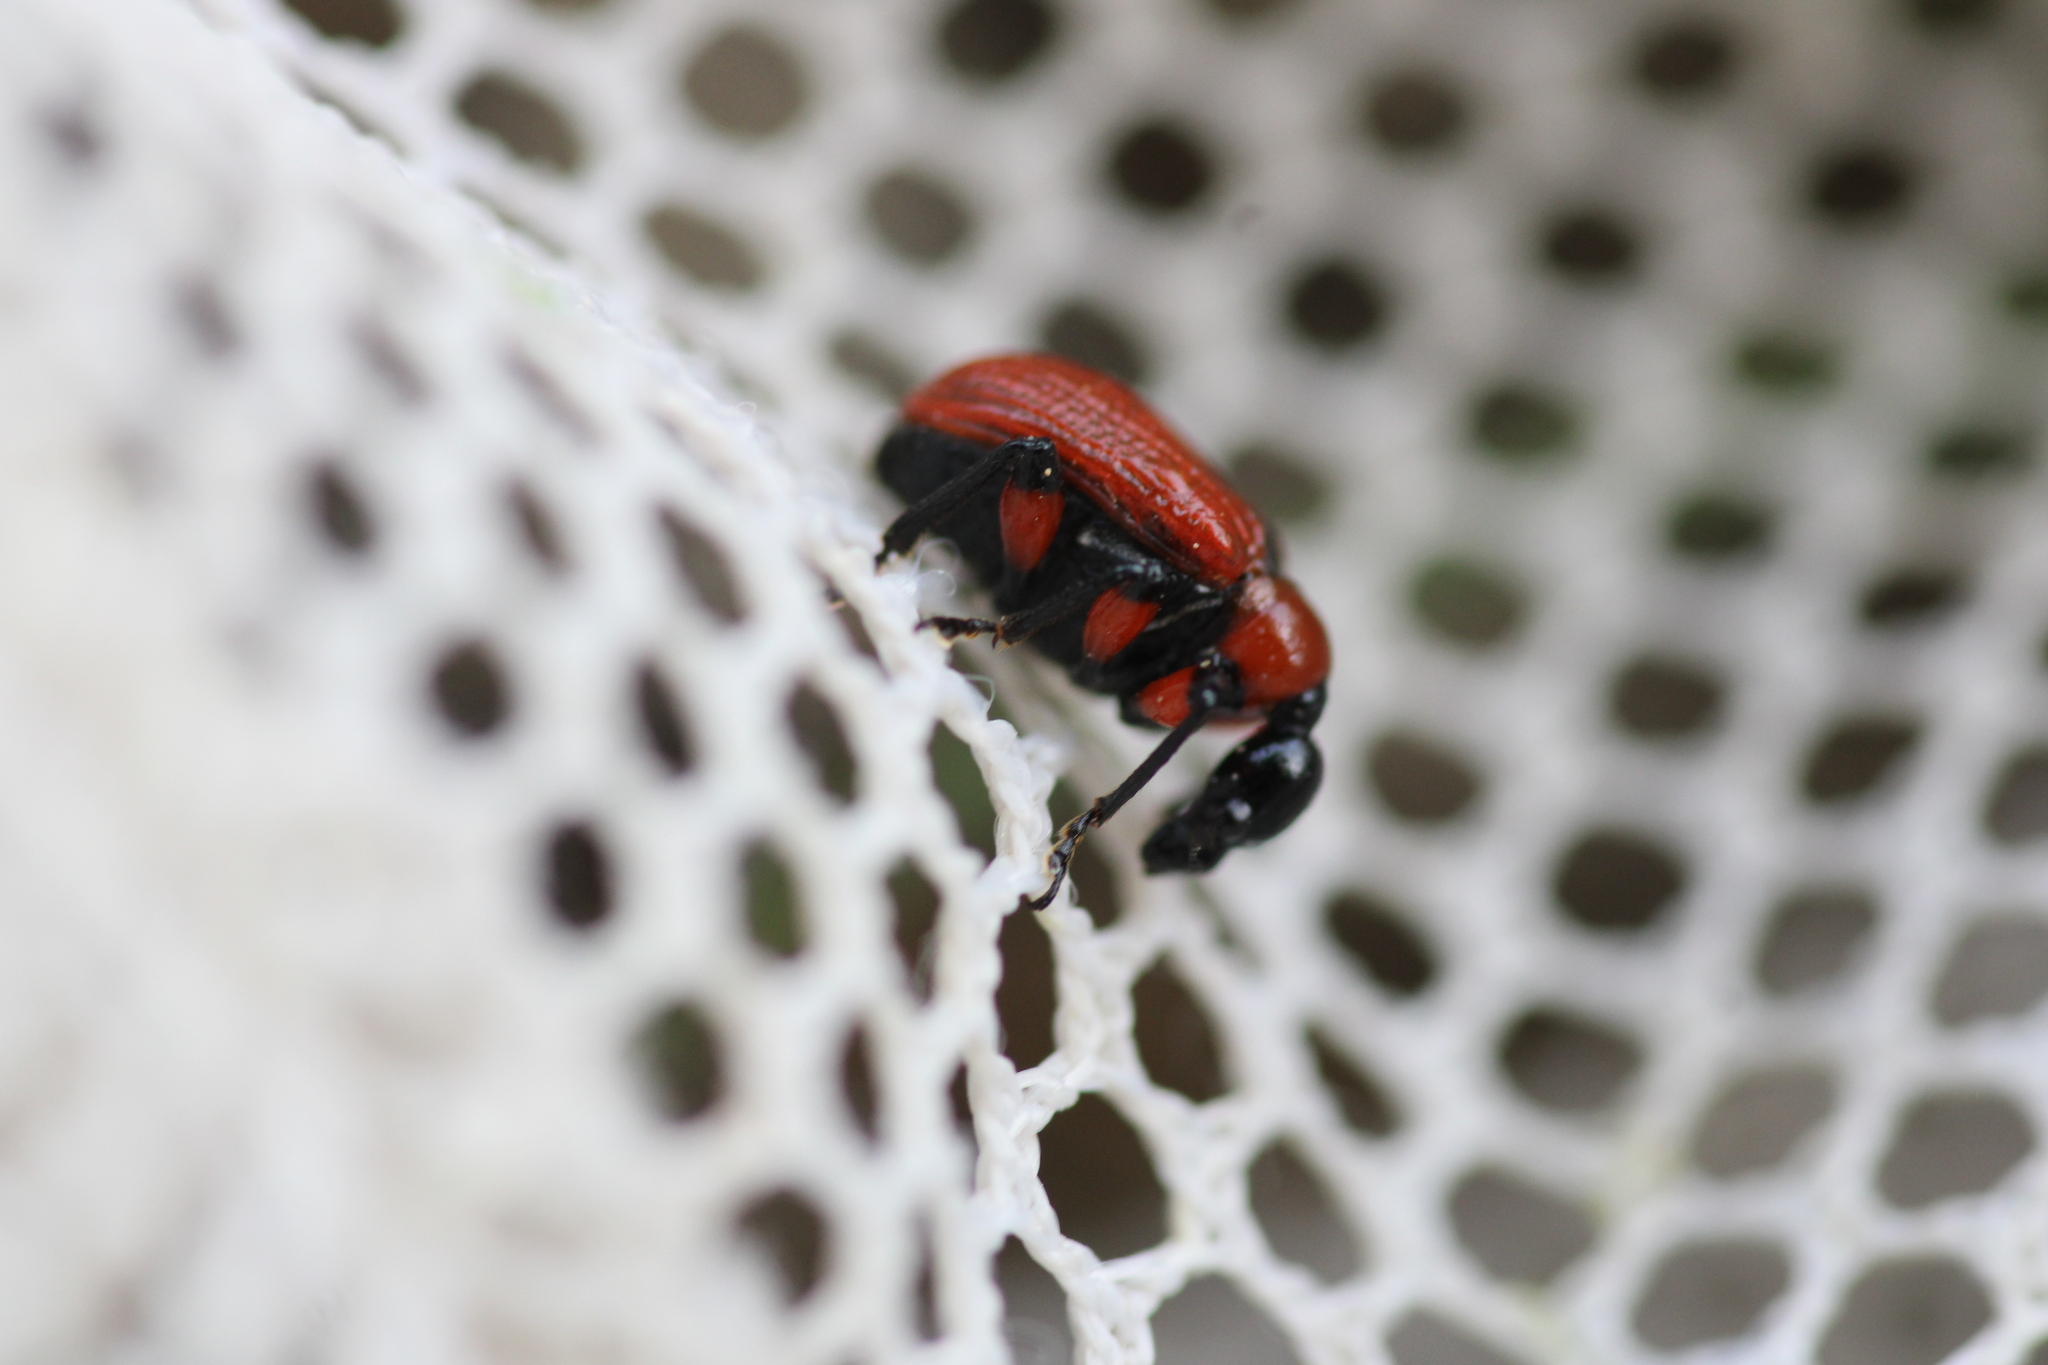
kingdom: Animalia
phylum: Arthropoda
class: Insecta
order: Coleoptera
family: Attelabidae
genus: Apoderus
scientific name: Apoderus coryli
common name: Hazel leaf roller
